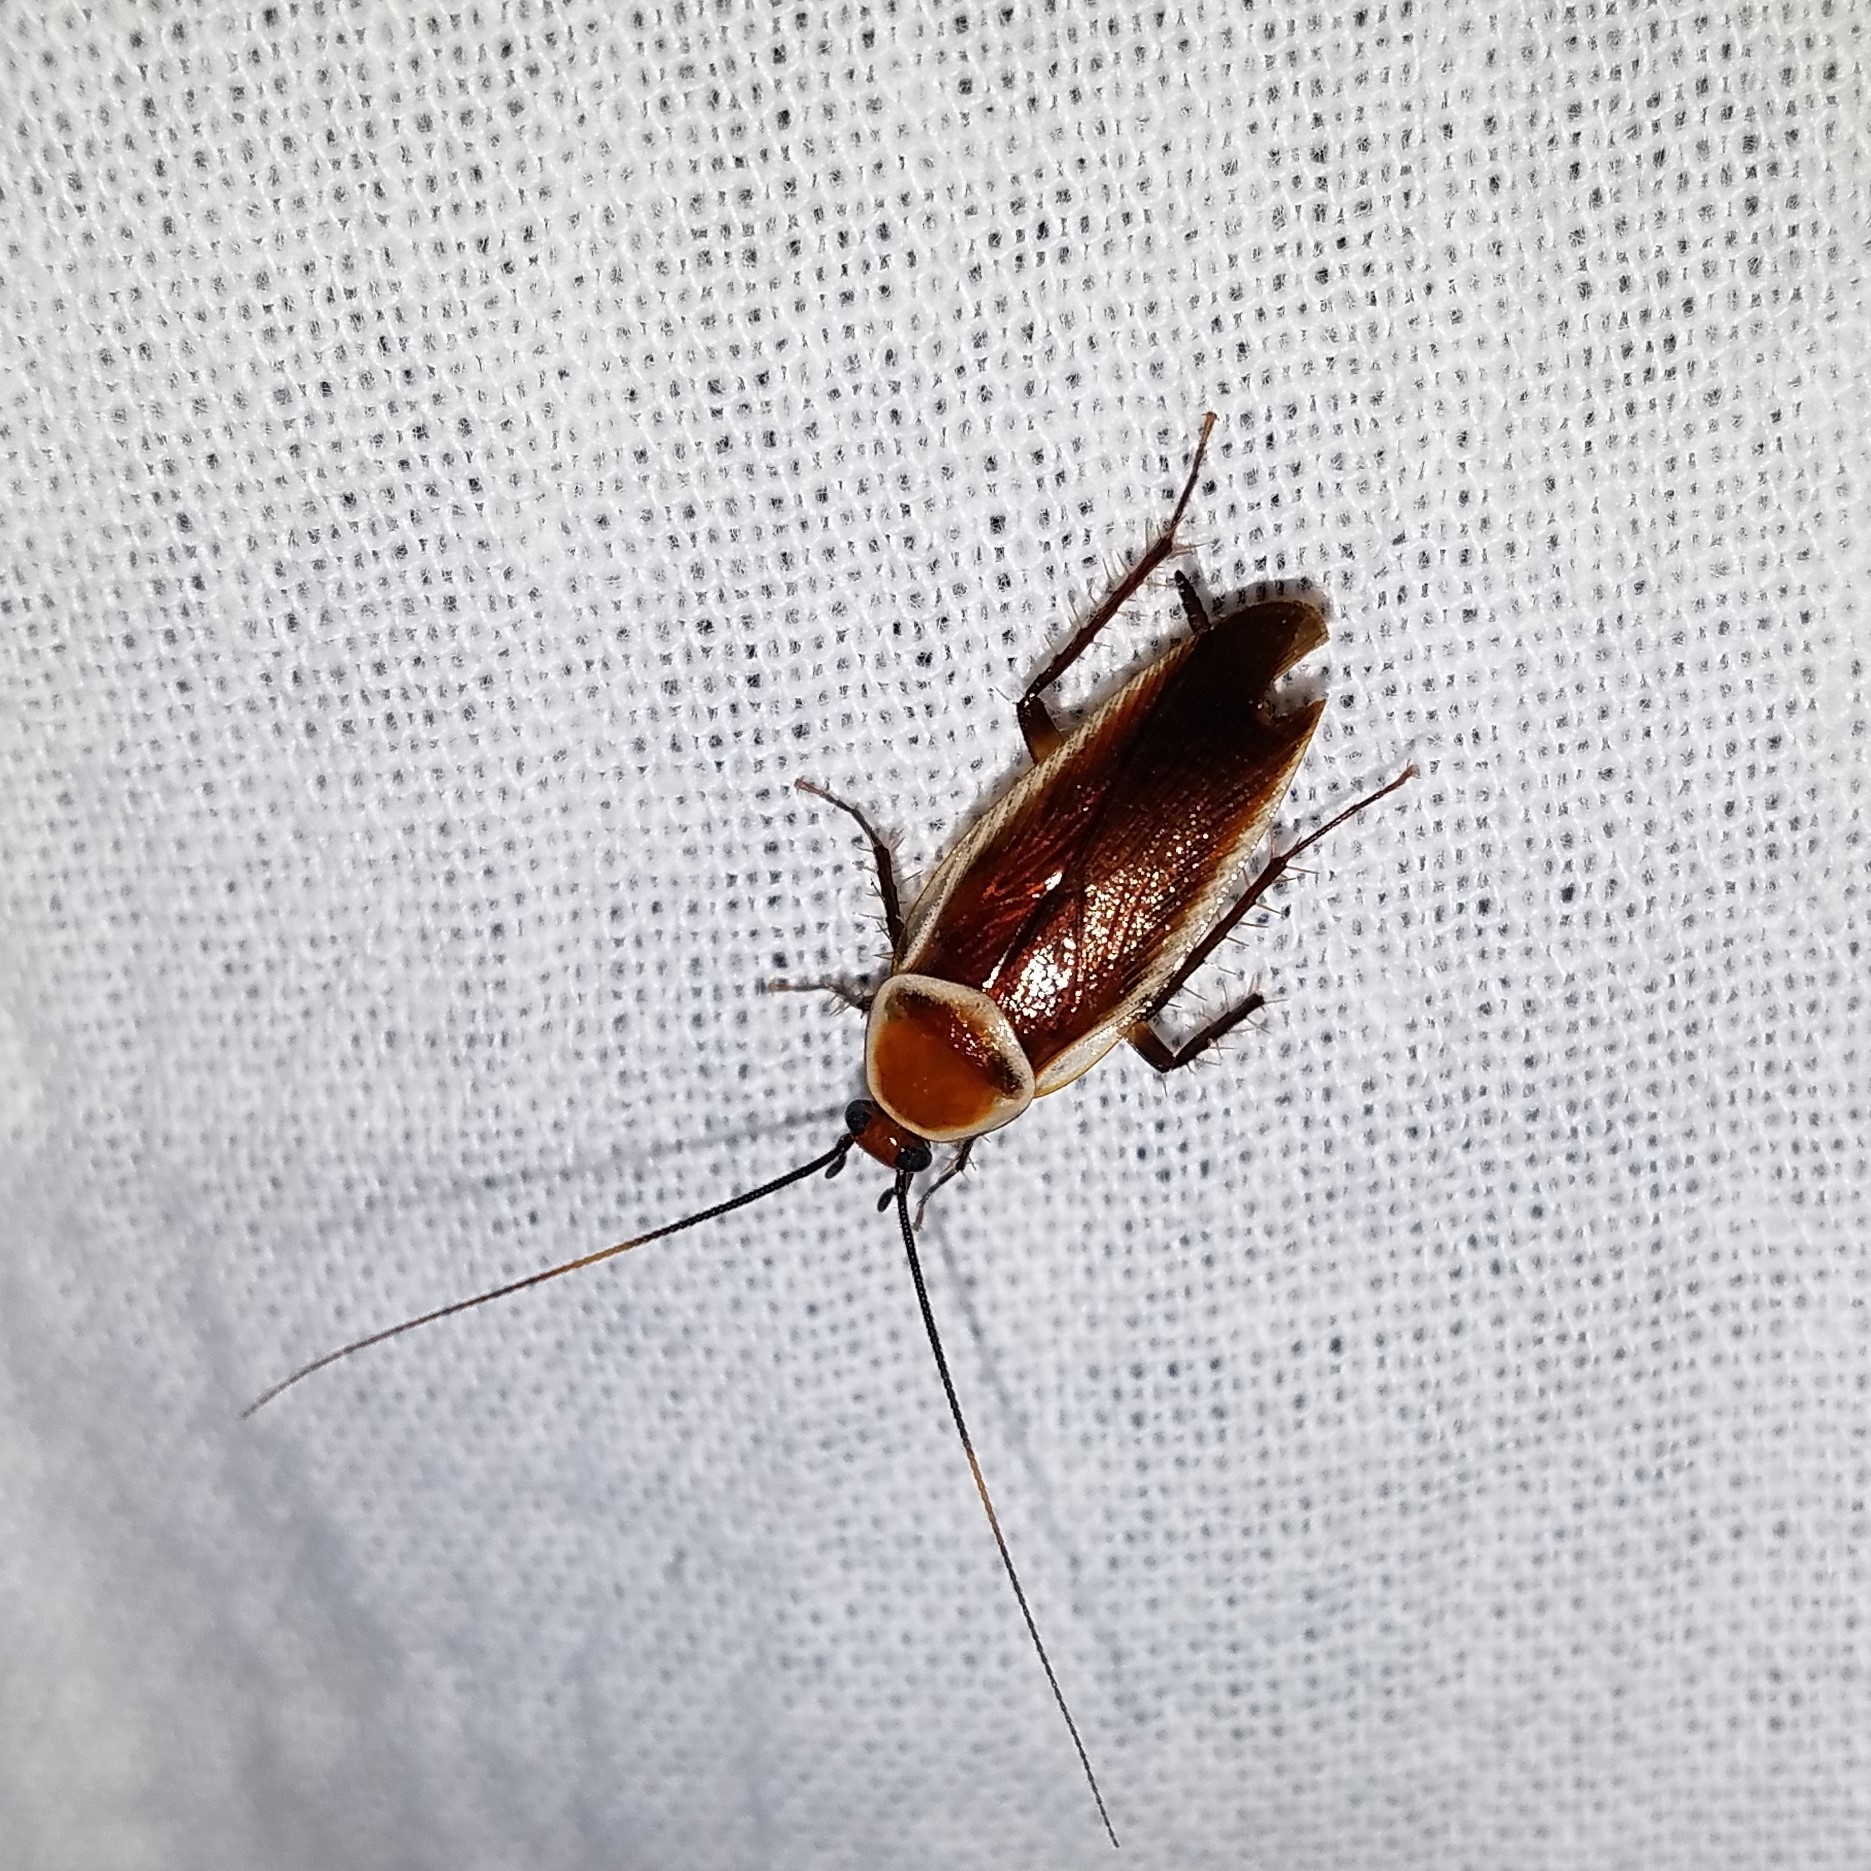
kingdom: Animalia
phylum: Arthropoda
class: Insecta
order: Blattodea
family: Ectobiidae
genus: Pseudomops
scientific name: Pseudomops septentrionalis
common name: Pale-bordered field cockroach
